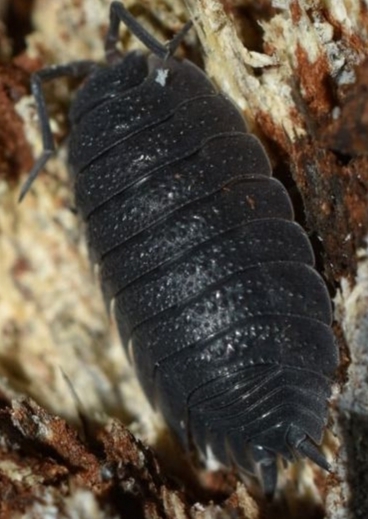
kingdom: Animalia
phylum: Arthropoda
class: Malacostraca
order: Isopoda
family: Porcellionidae
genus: Porcellio
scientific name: Porcellio scaber
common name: Common rough woodlouse
